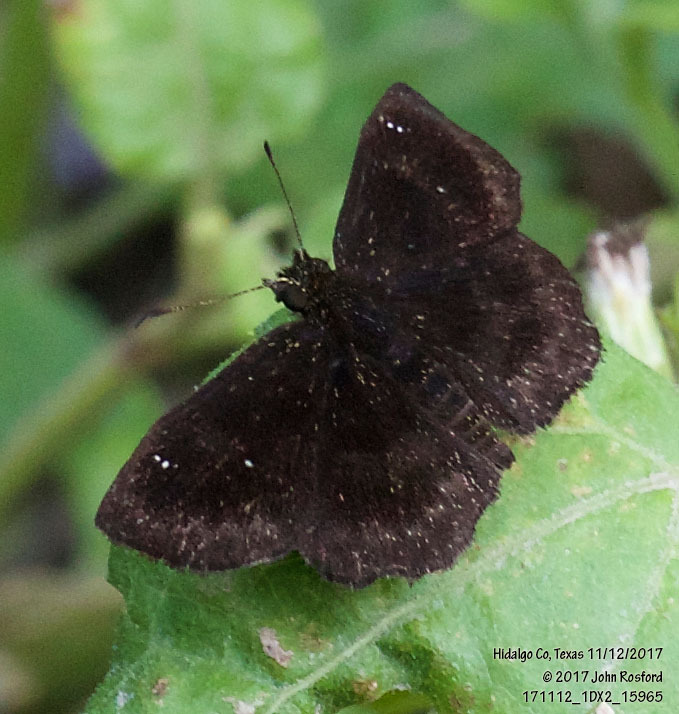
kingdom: Animalia
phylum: Arthropoda
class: Insecta
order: Lepidoptera
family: Hesperiidae
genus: Staphylus
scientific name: Staphylus mazans
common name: Mazans scallopwing
